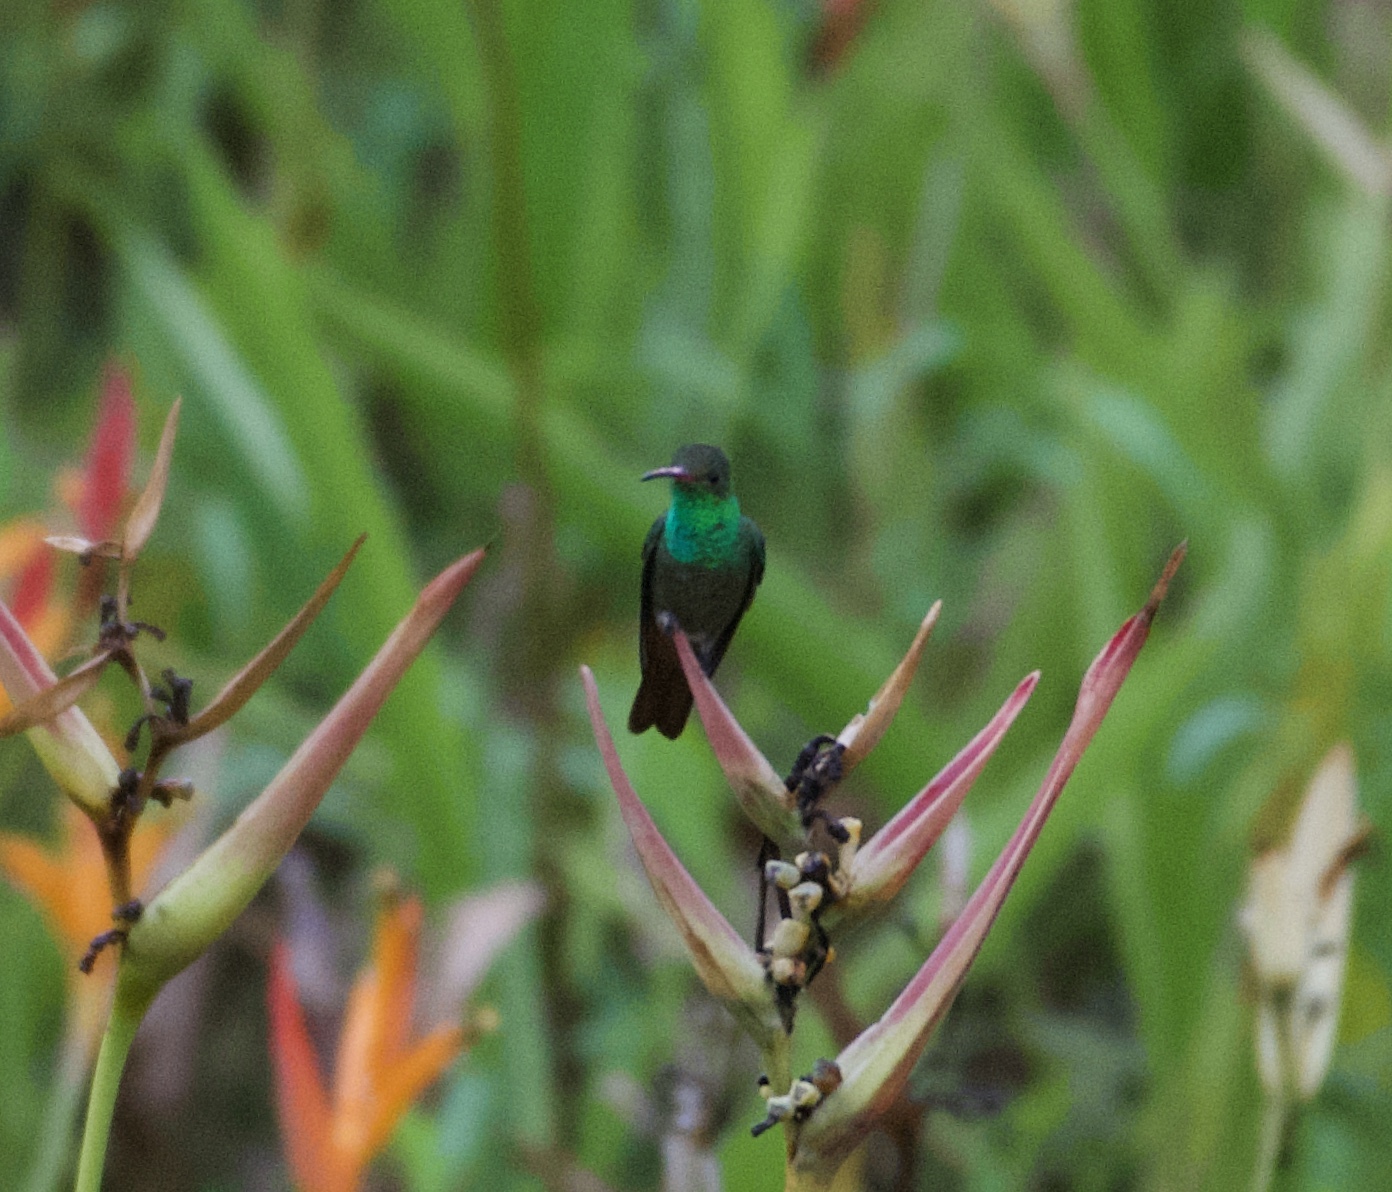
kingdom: Animalia
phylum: Chordata
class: Aves
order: Apodiformes
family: Trochilidae
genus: Amazilia
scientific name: Amazilia tzacatl
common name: Rufous-tailed hummingbird
